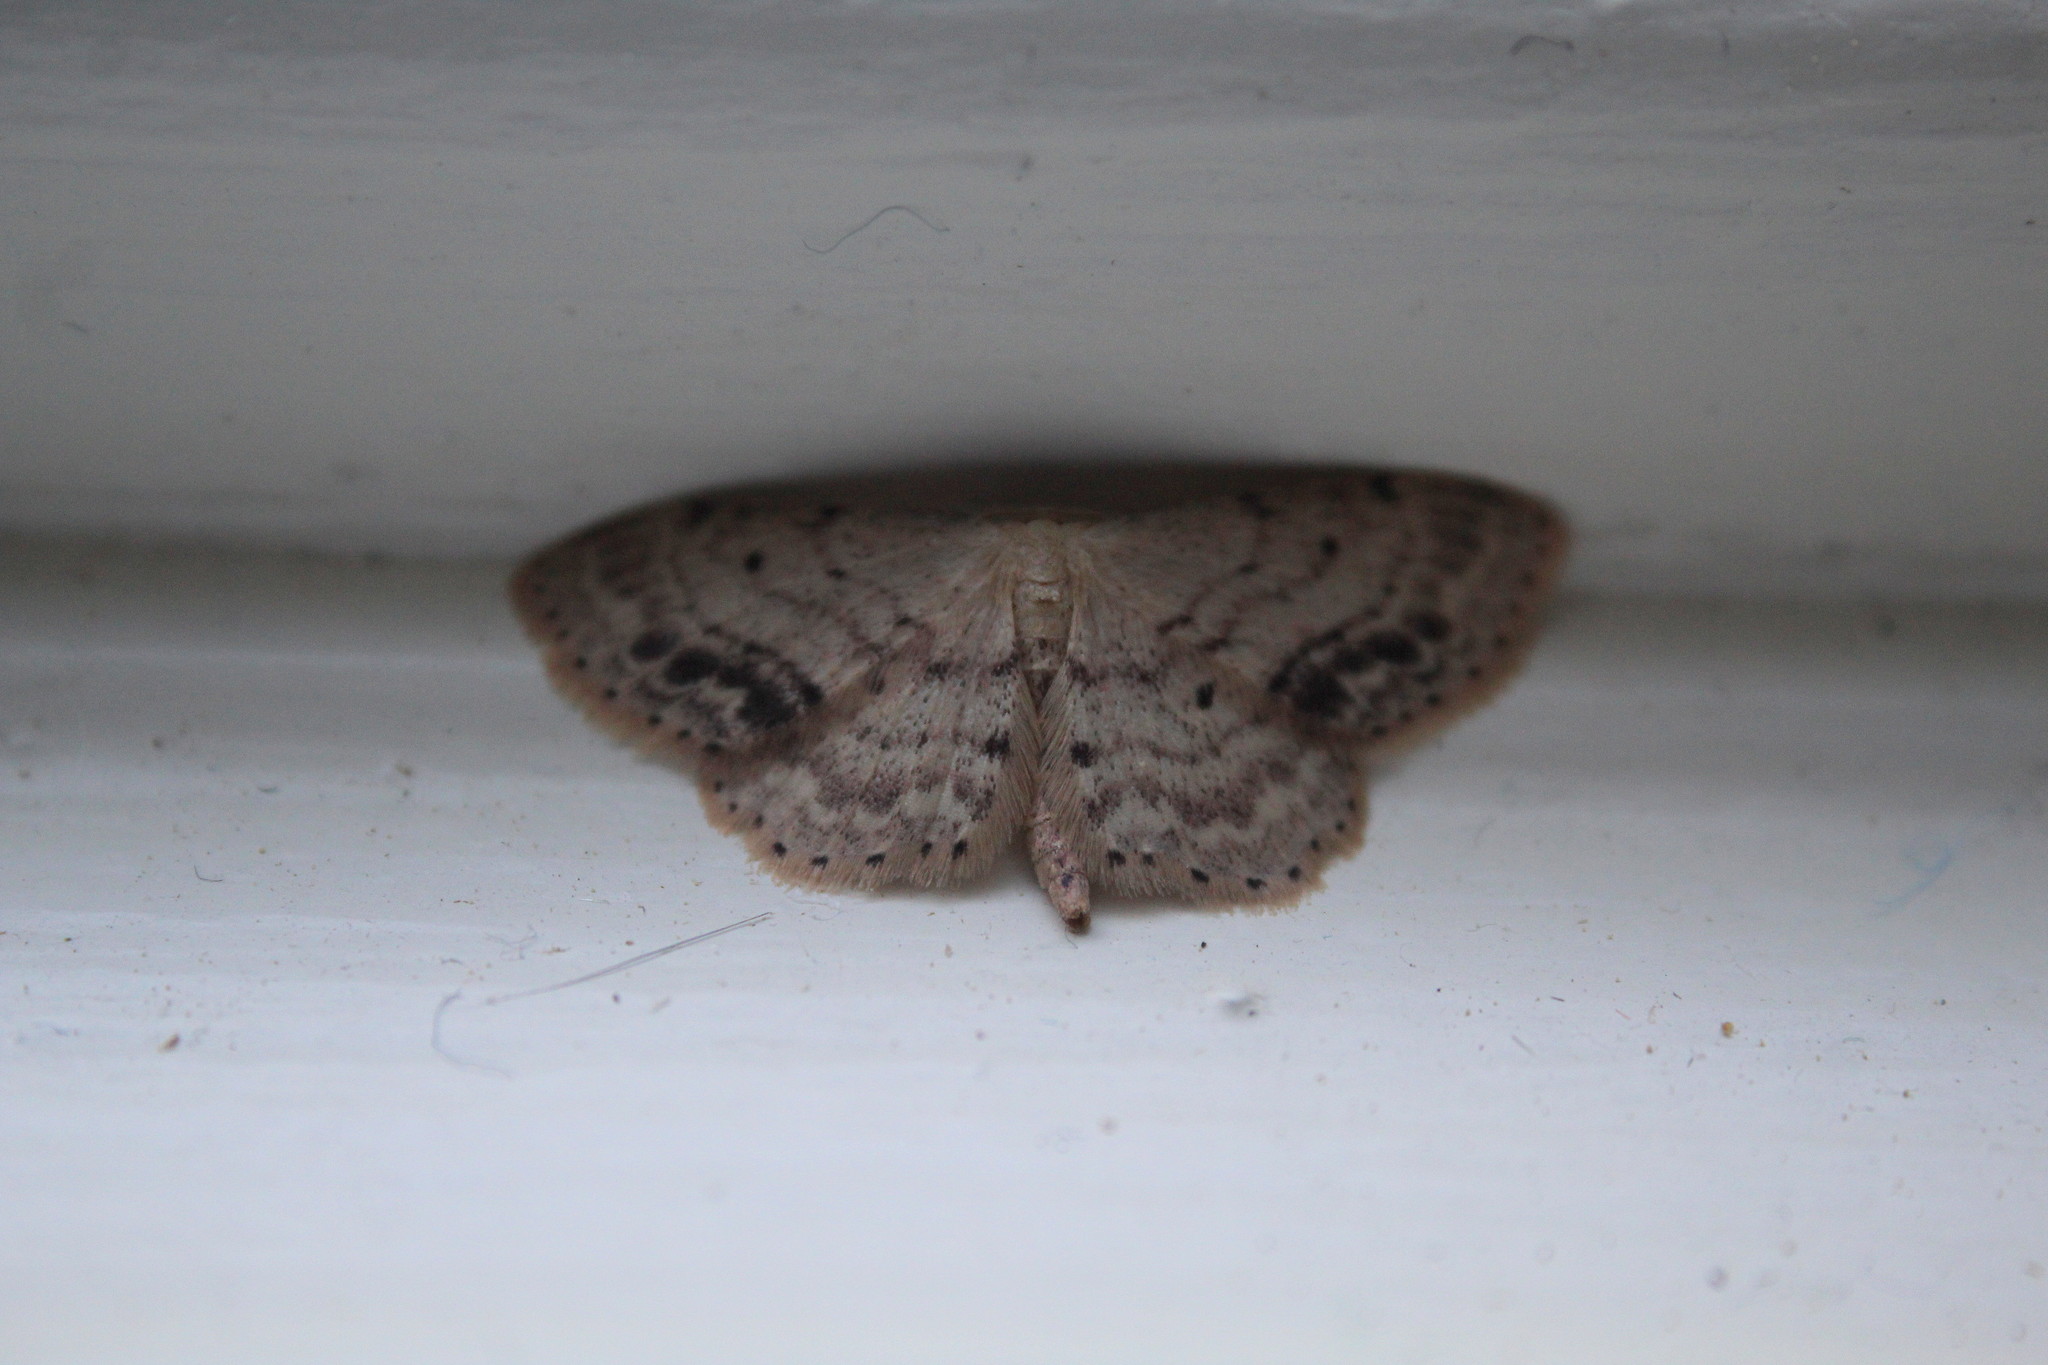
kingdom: Animalia
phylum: Arthropoda
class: Insecta
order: Lepidoptera
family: Geometridae
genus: Idaea
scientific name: Idaea dimidiata
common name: Single-dotted wave
